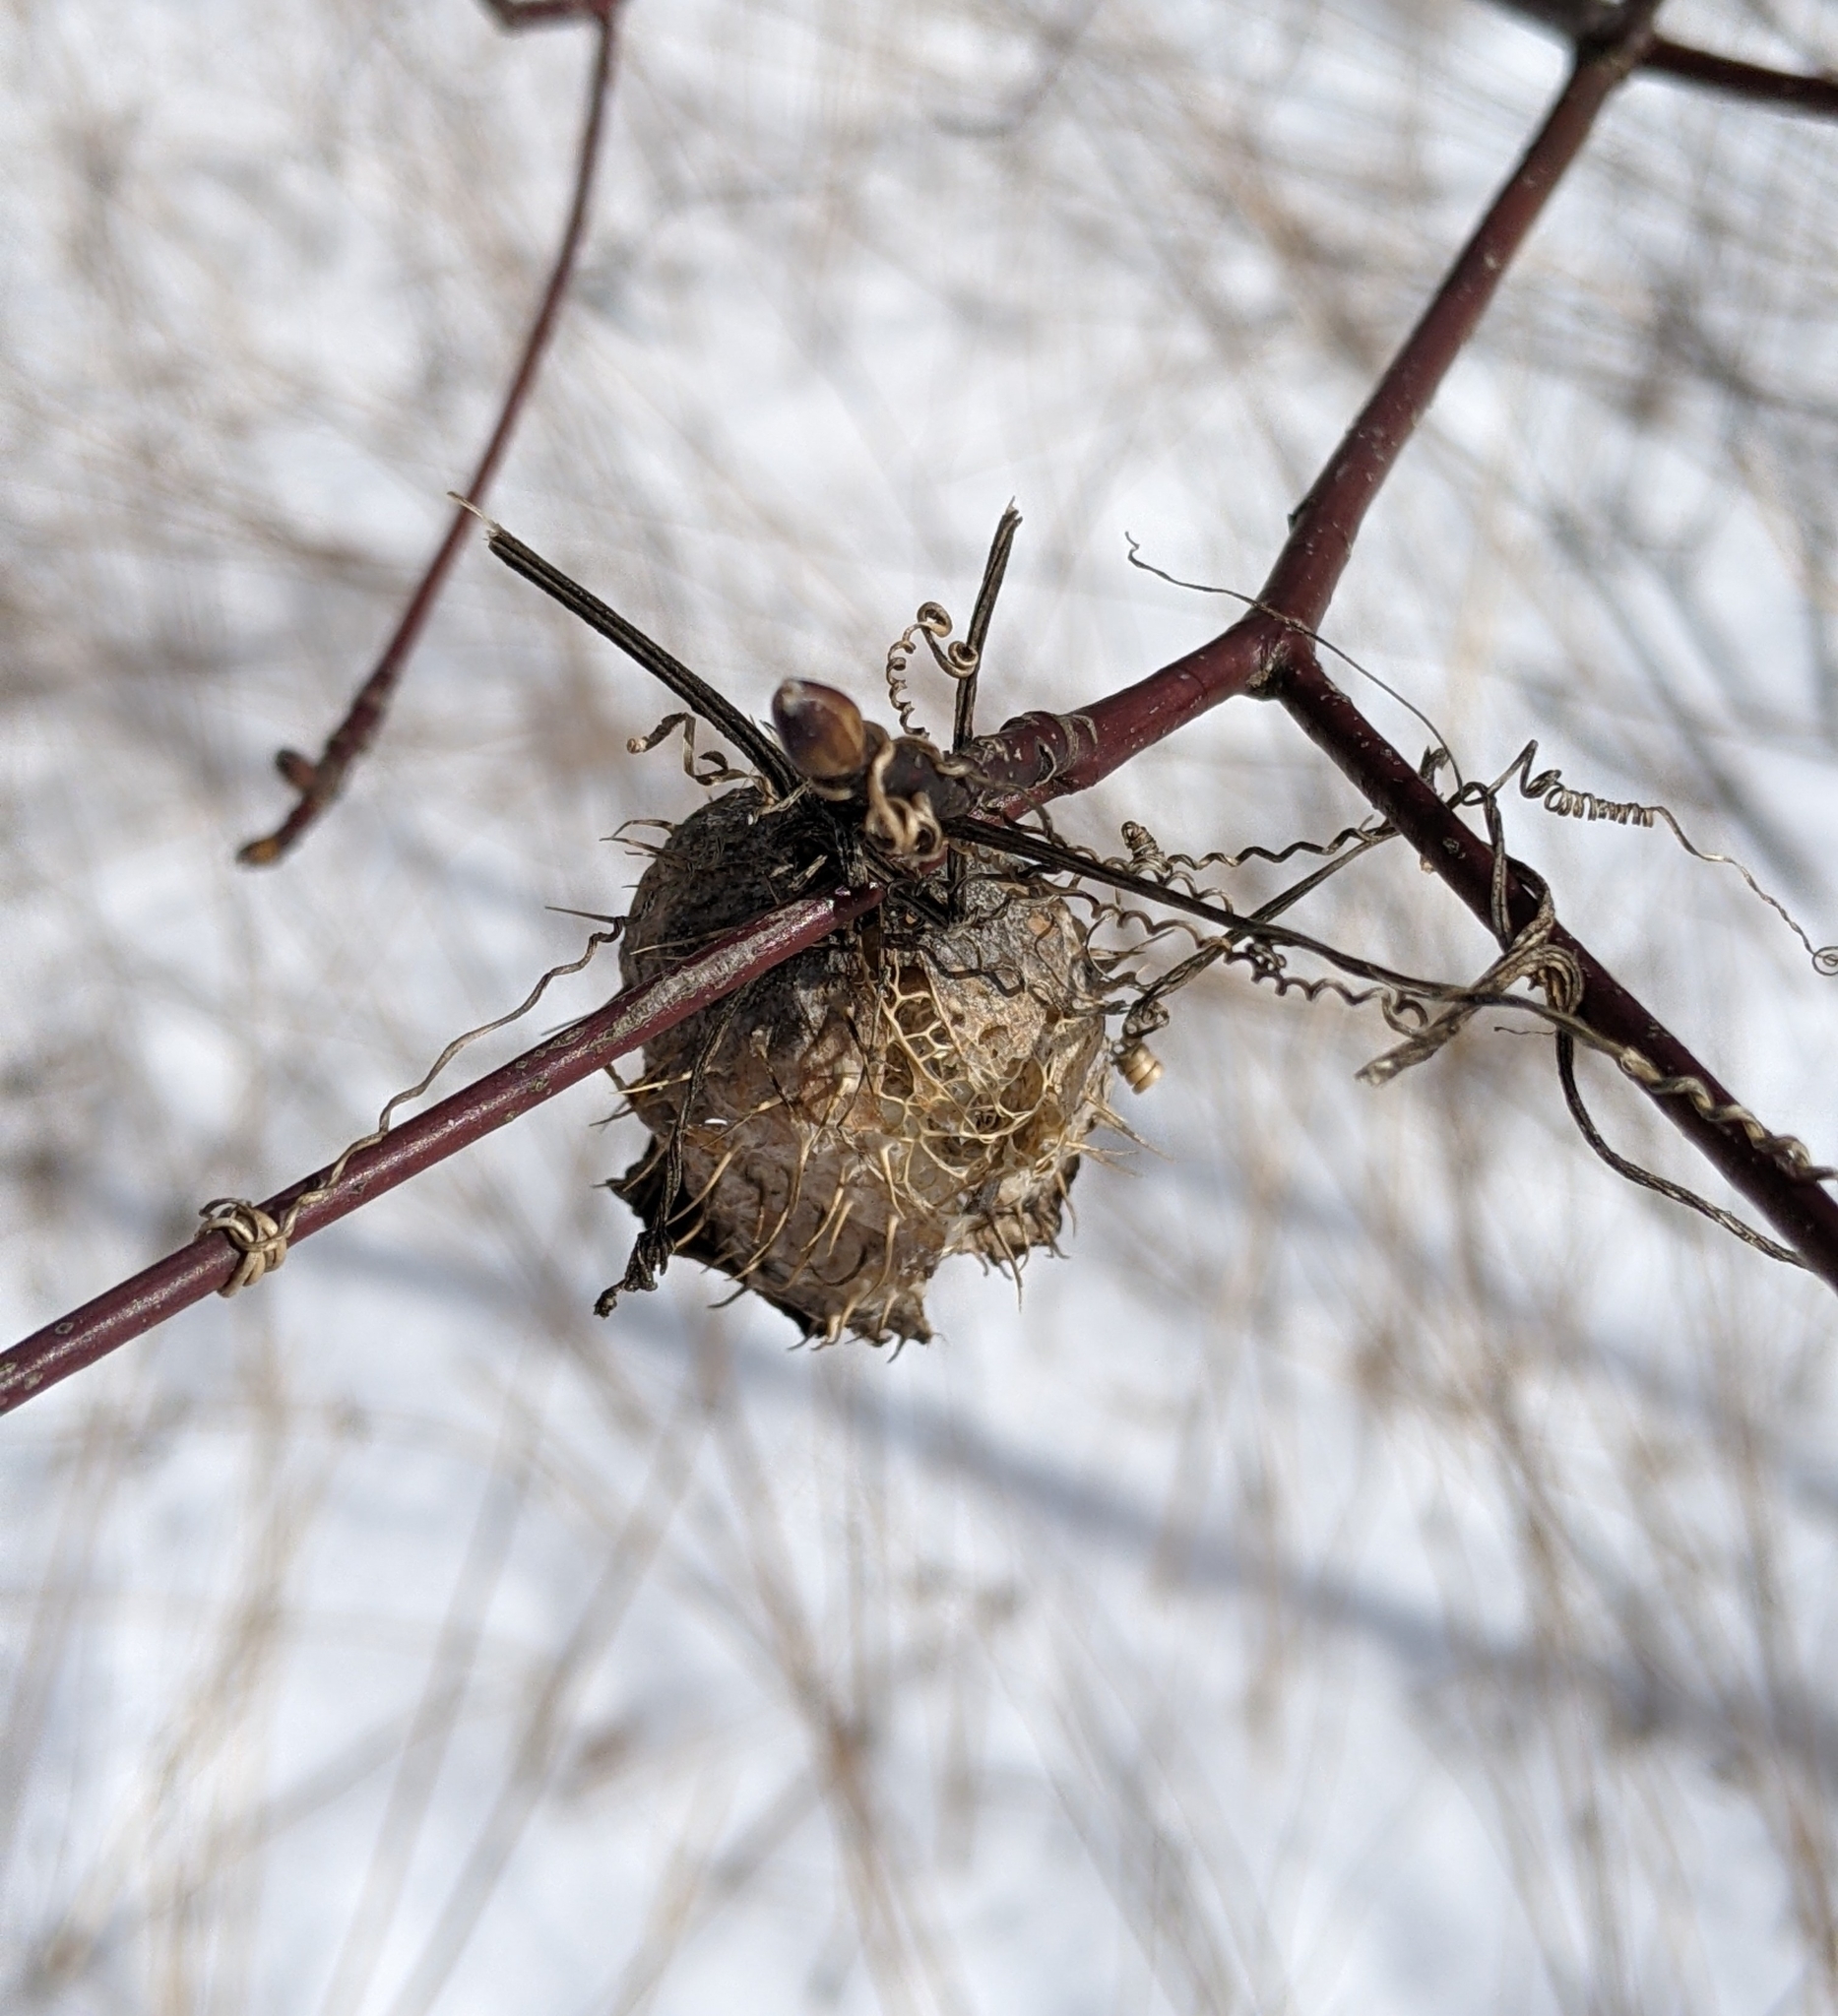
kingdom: Plantae
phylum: Tracheophyta
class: Magnoliopsida
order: Cucurbitales
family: Cucurbitaceae
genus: Echinocystis
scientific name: Echinocystis lobata
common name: Wild cucumber
